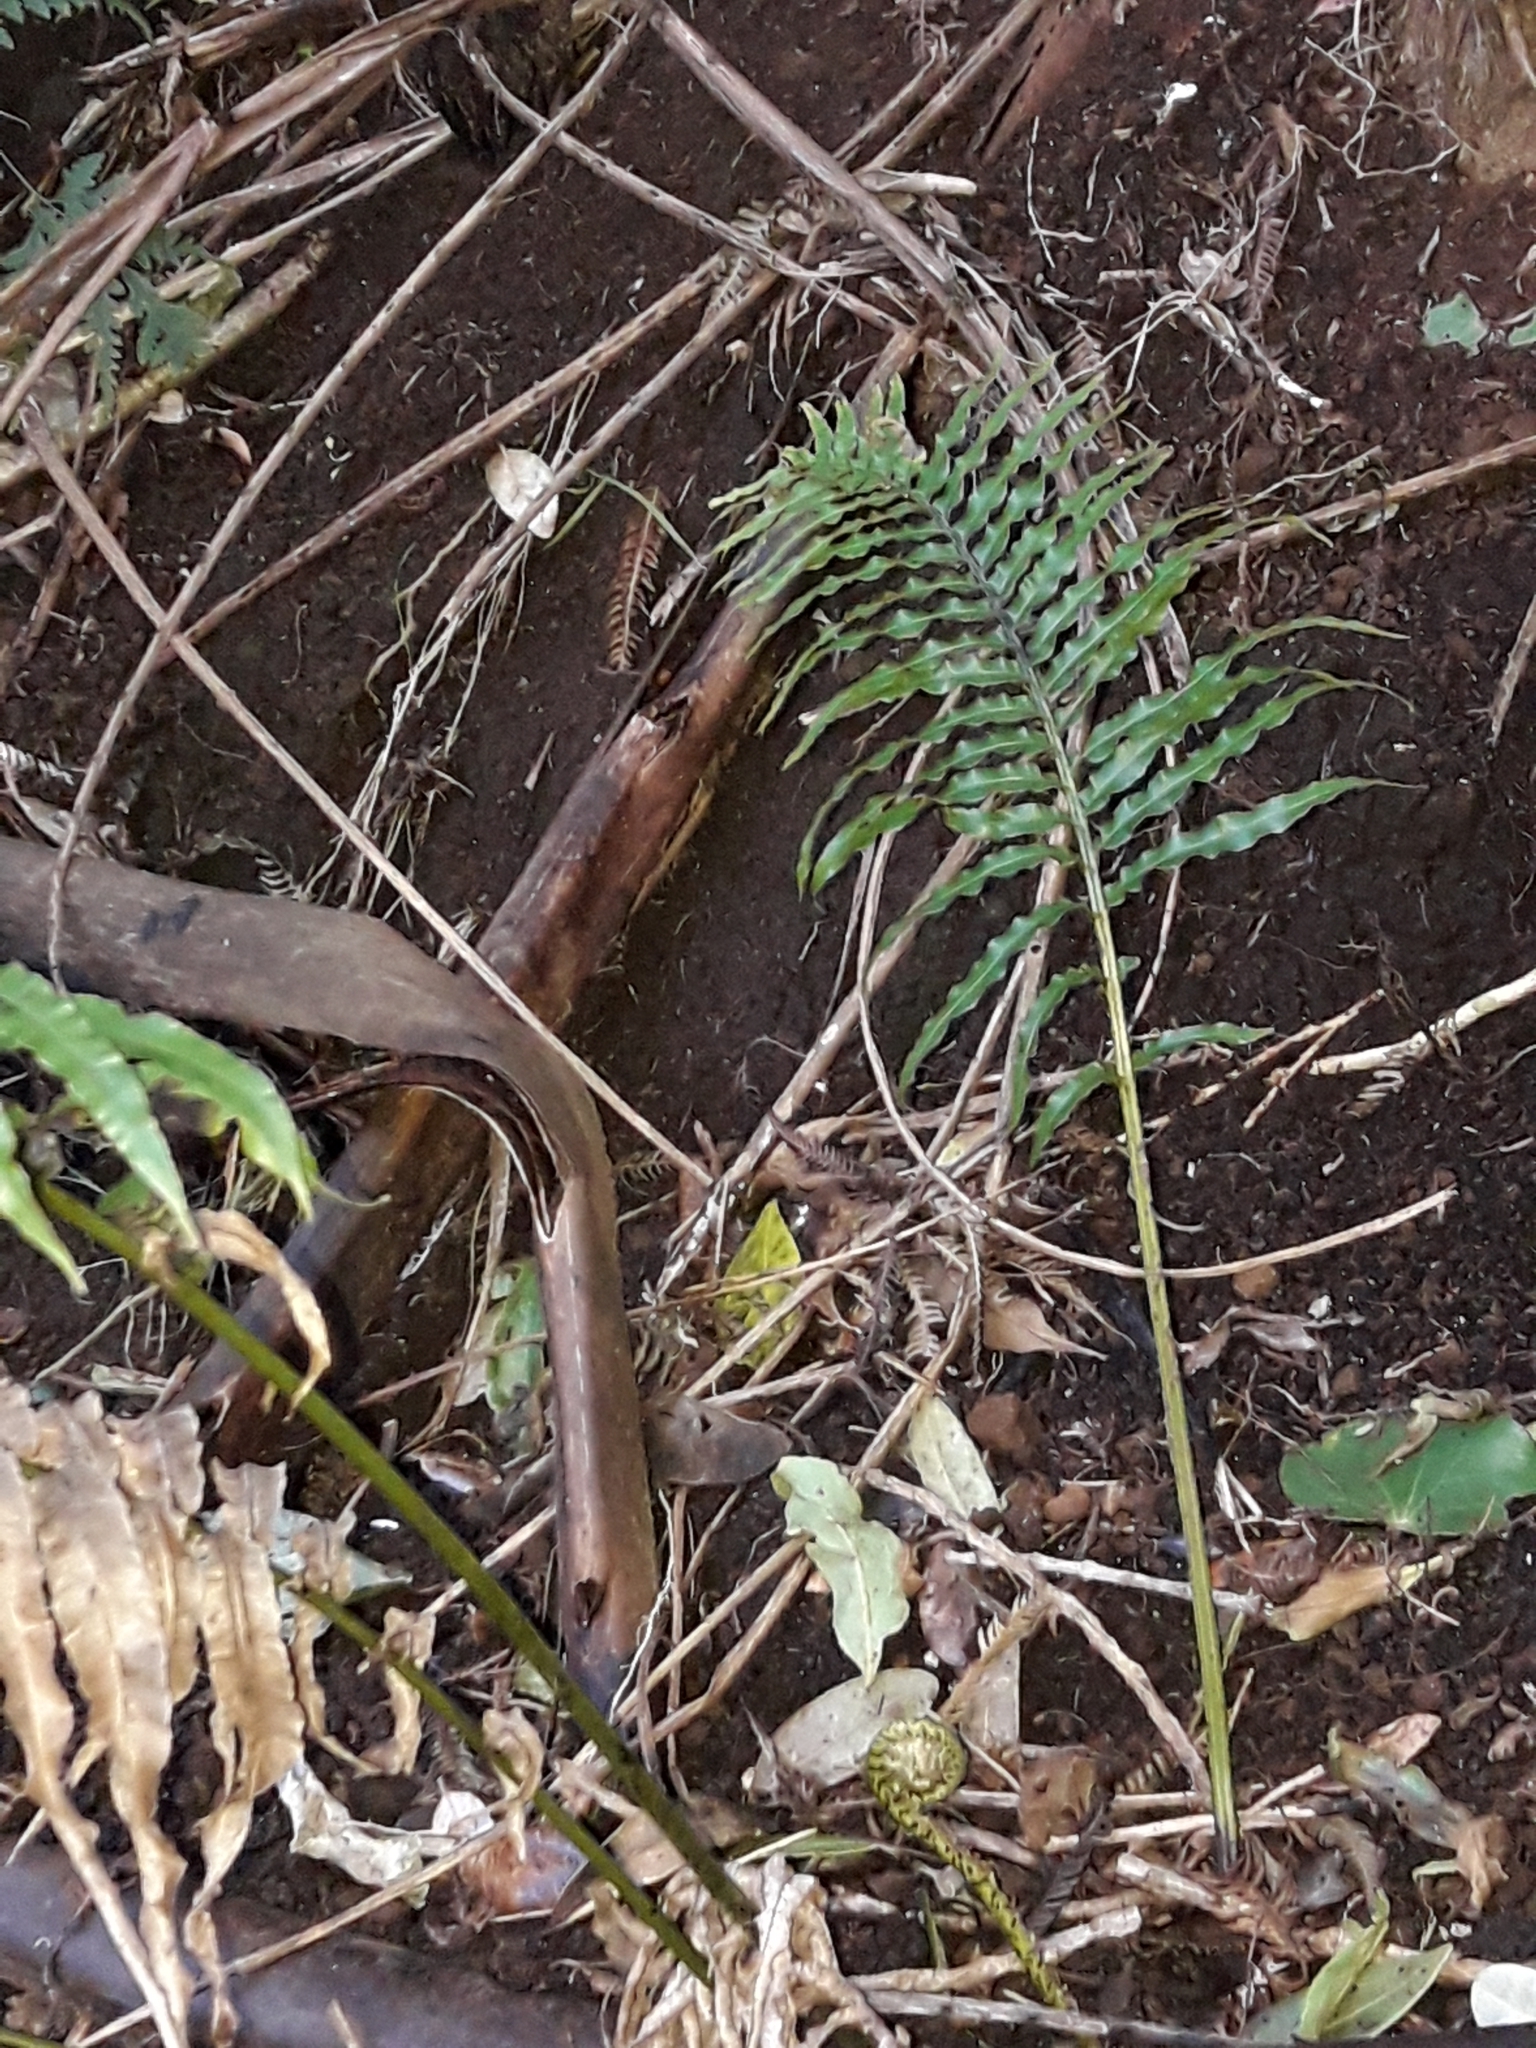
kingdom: Plantae
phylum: Tracheophyta
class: Polypodiopsida
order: Polypodiales
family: Blechnaceae
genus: Parablechnum
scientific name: Parablechnum triangularifolium
